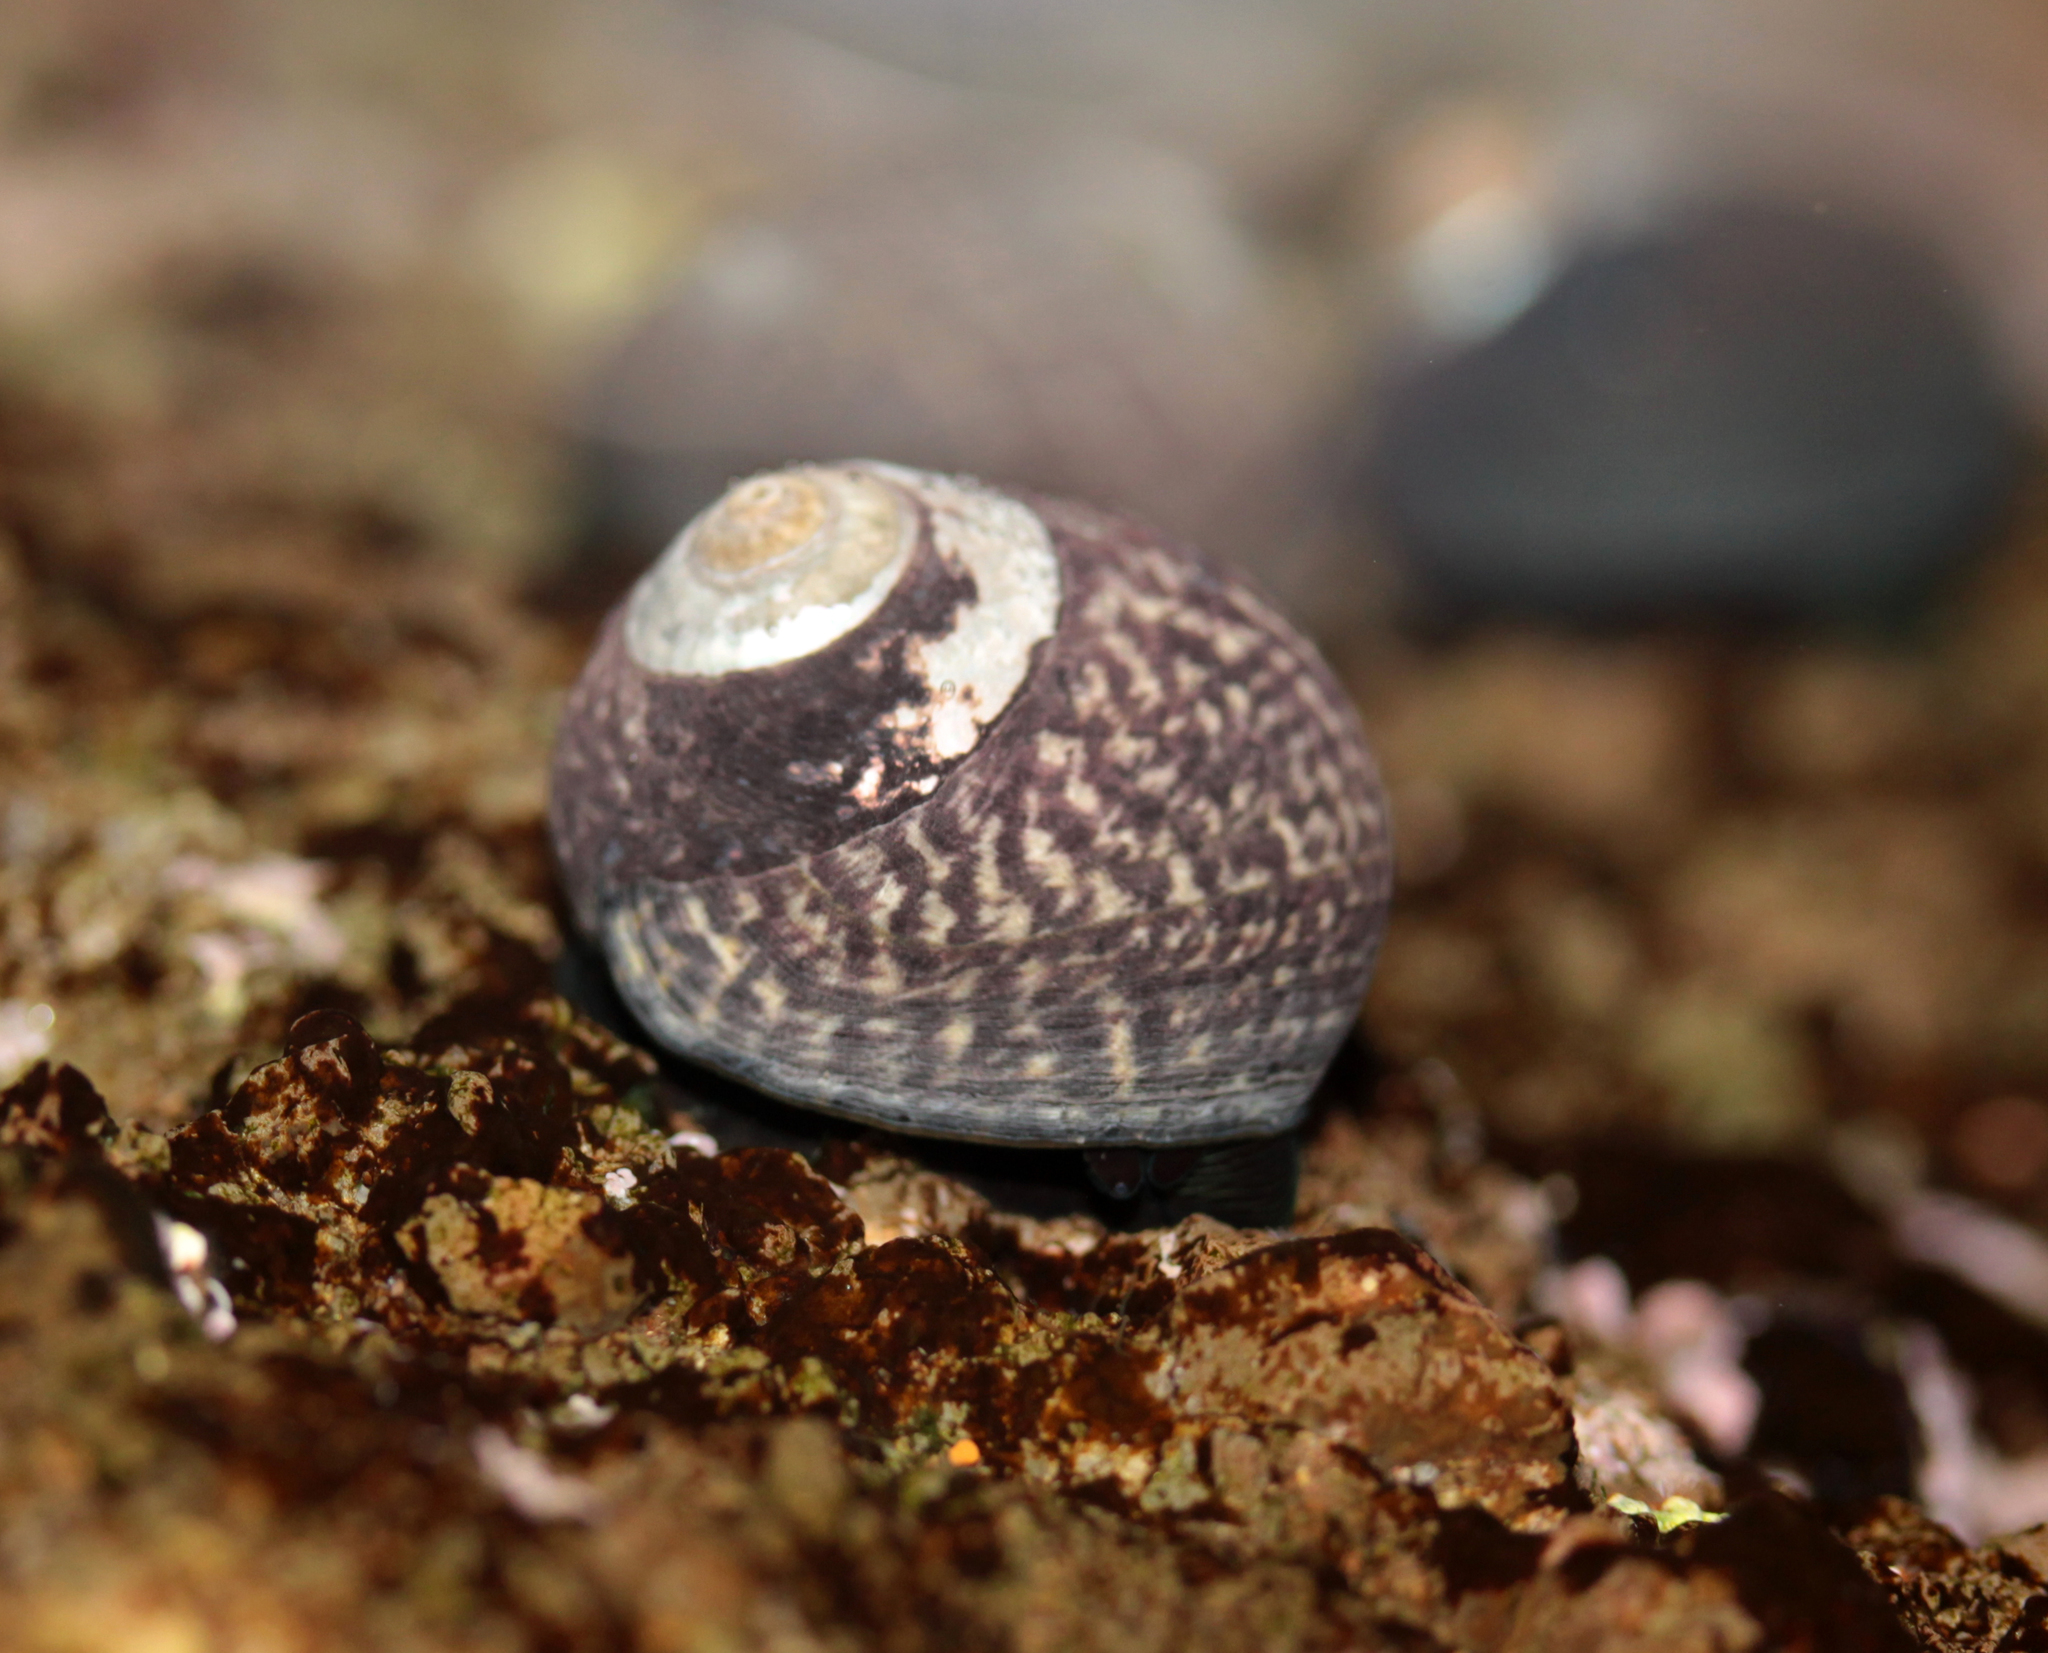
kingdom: Animalia
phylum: Mollusca
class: Gastropoda
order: Trochida
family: Tegulidae
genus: Tegula
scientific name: Tegula gallina
